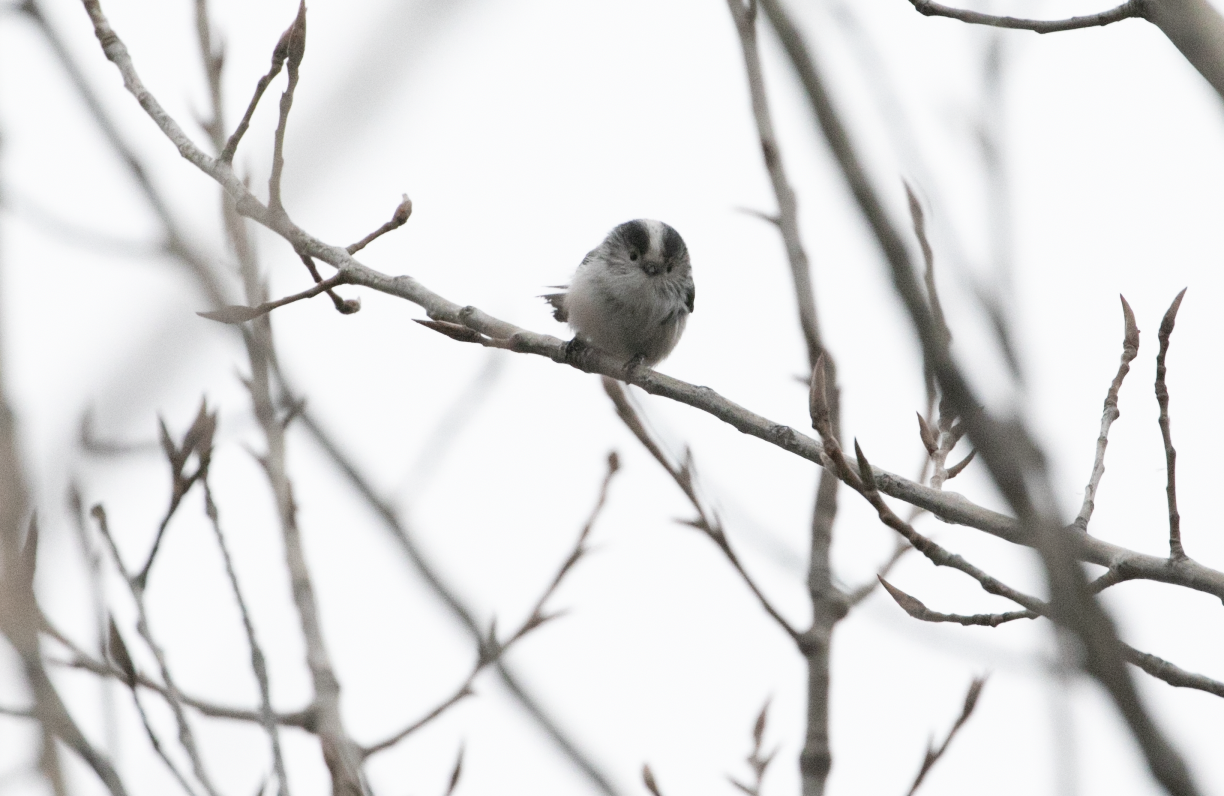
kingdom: Animalia
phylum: Chordata
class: Aves
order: Passeriformes
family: Aegithalidae
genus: Aegithalos
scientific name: Aegithalos caudatus
